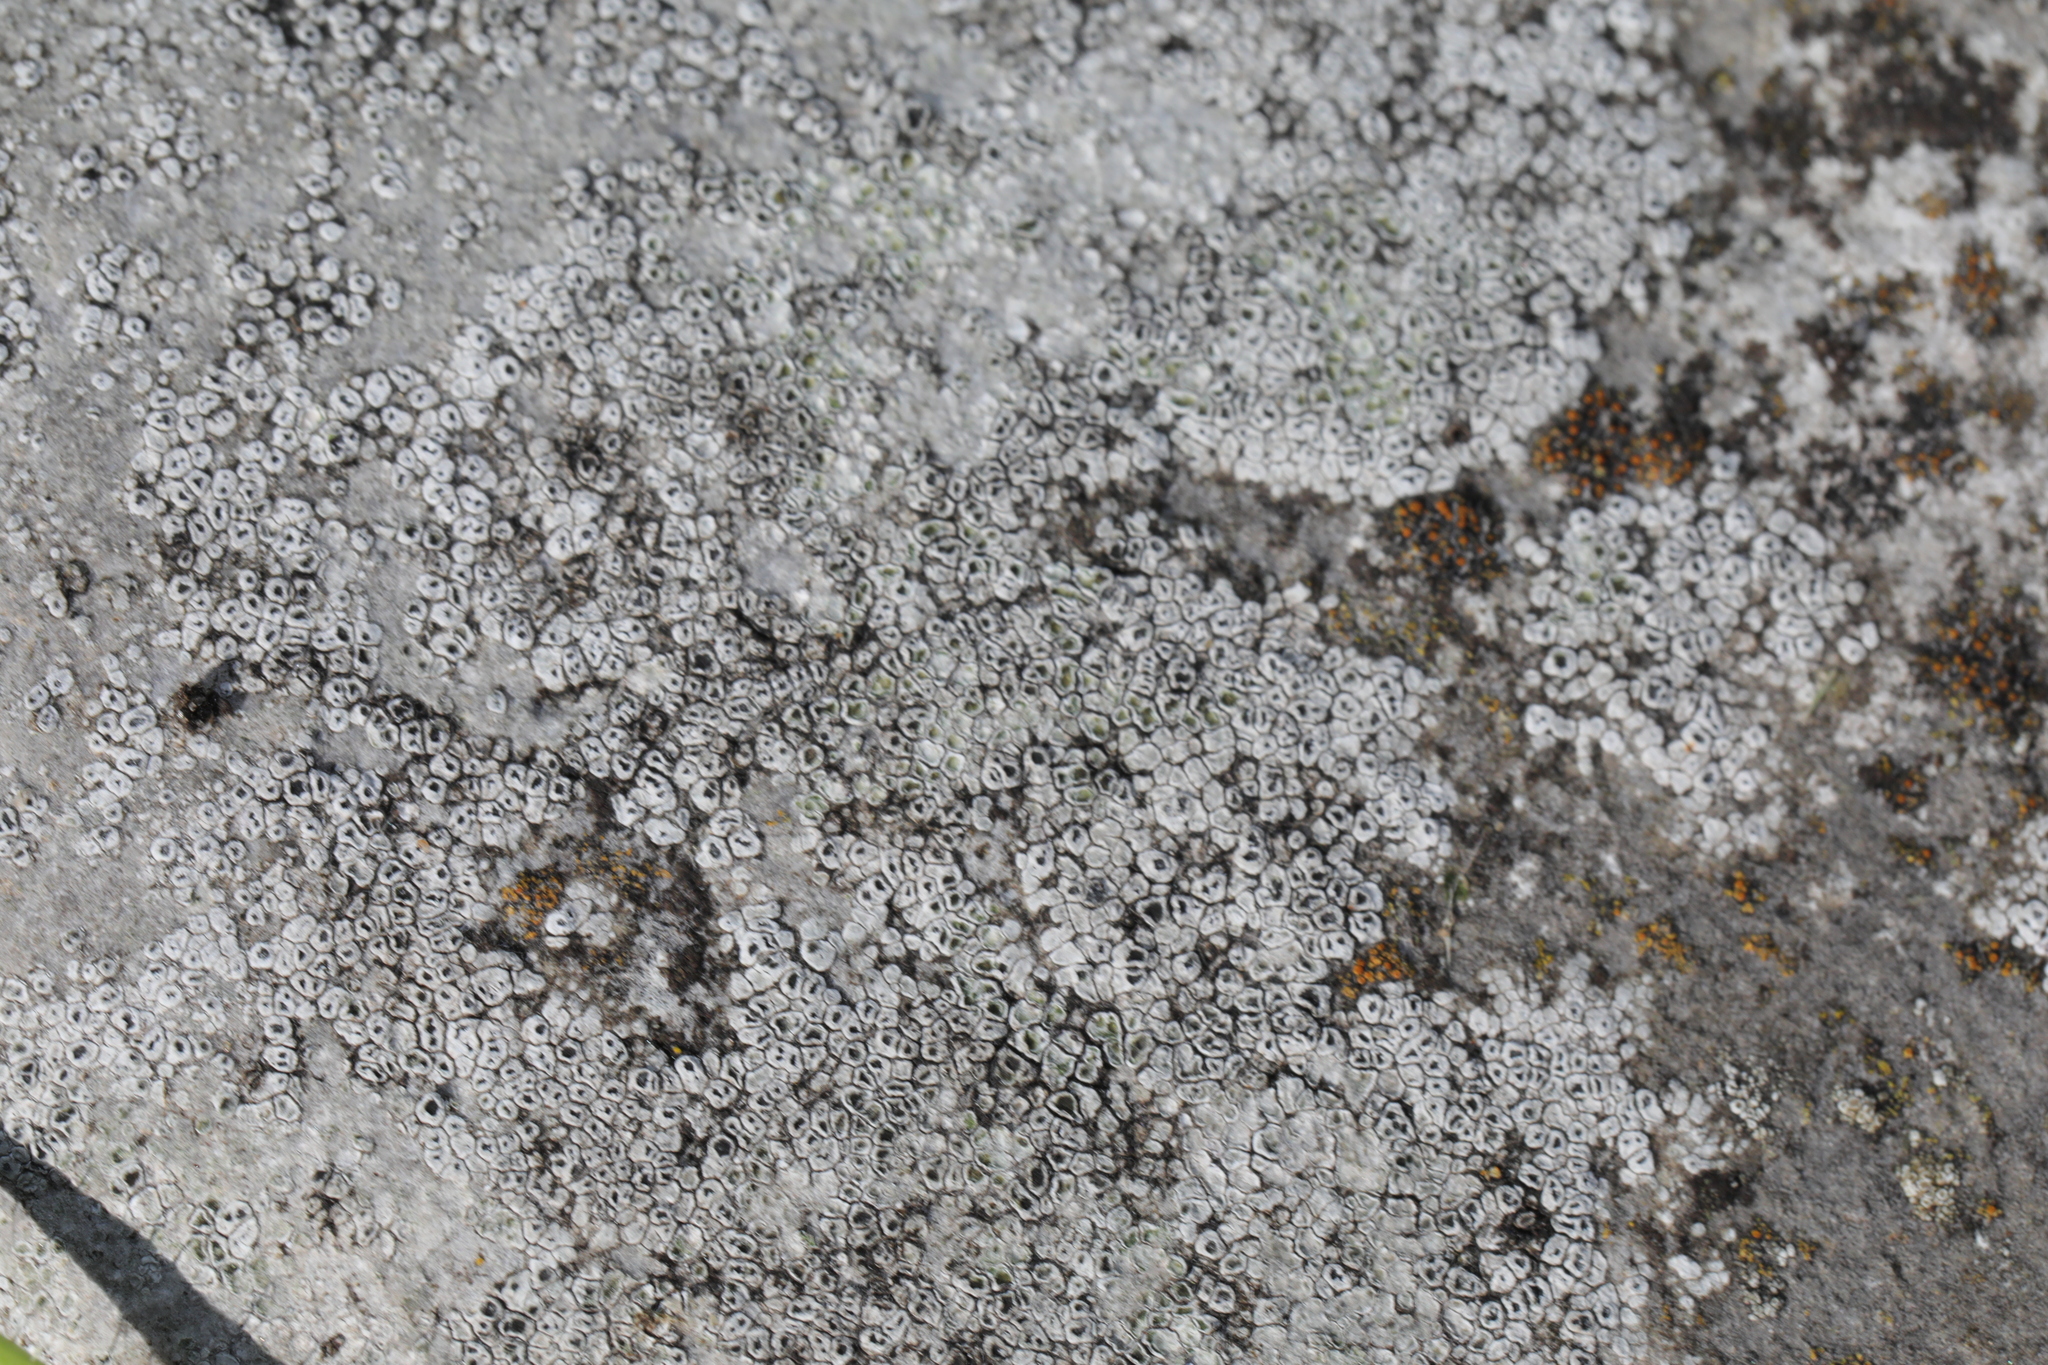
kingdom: Fungi
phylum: Ascomycota
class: Lecanoromycetes
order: Pertusariales
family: Megasporaceae
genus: Circinaria
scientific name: Circinaria contorta
